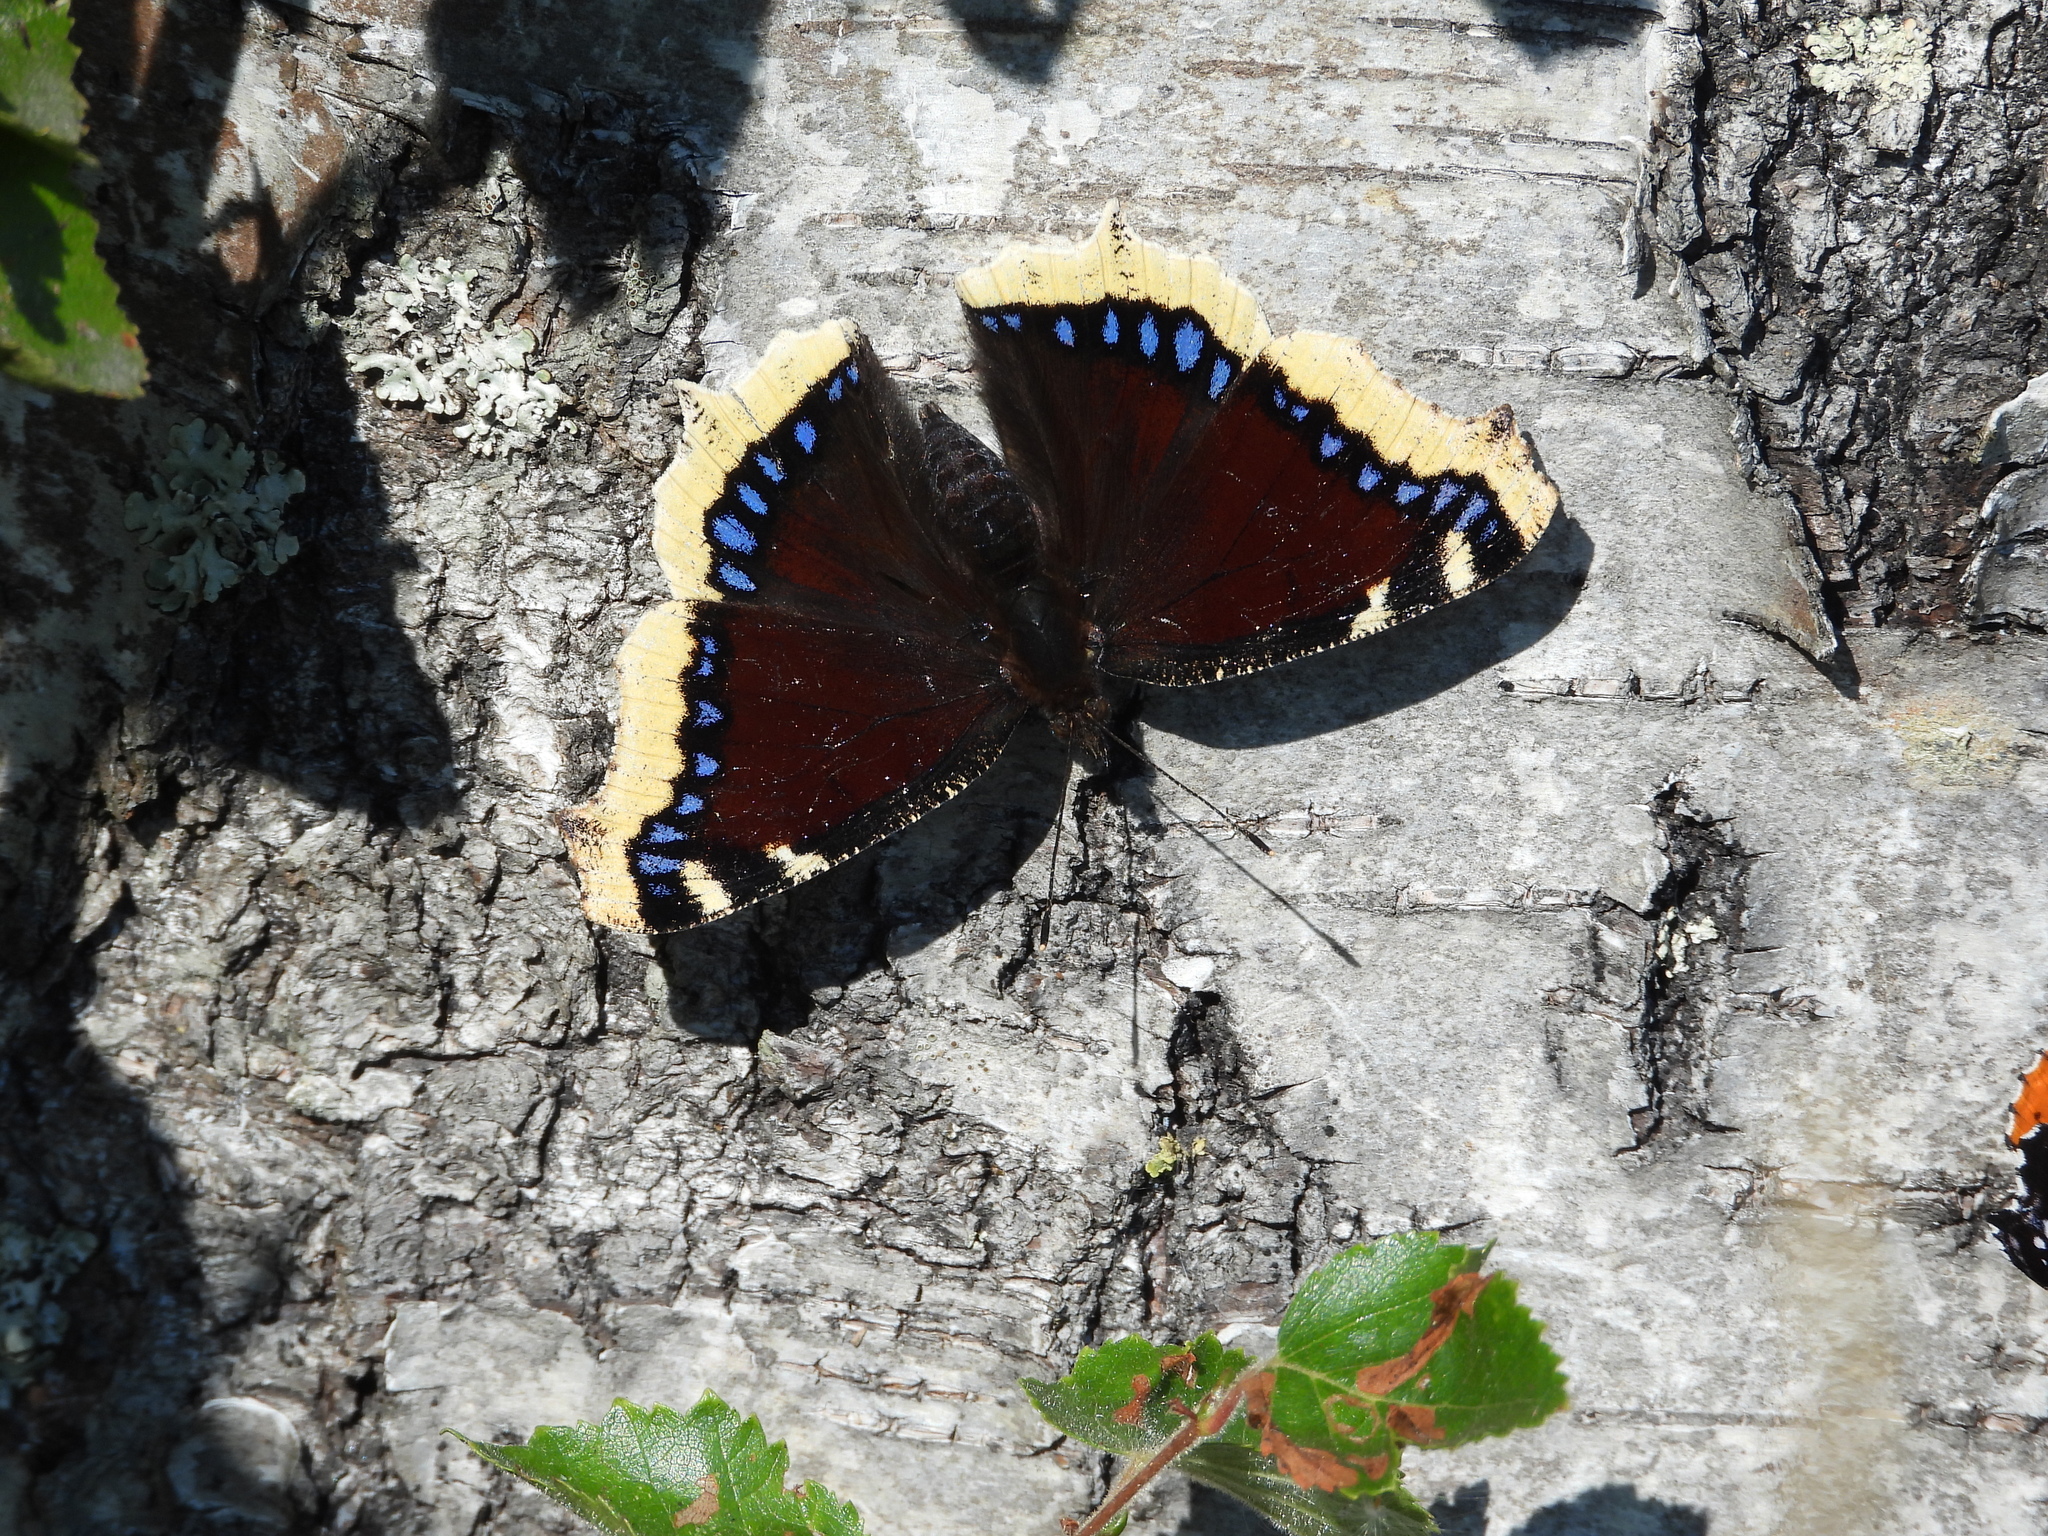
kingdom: Animalia
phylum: Arthropoda
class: Insecta
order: Lepidoptera
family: Nymphalidae
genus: Nymphalis
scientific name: Nymphalis antiopa
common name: Camberwell beauty
